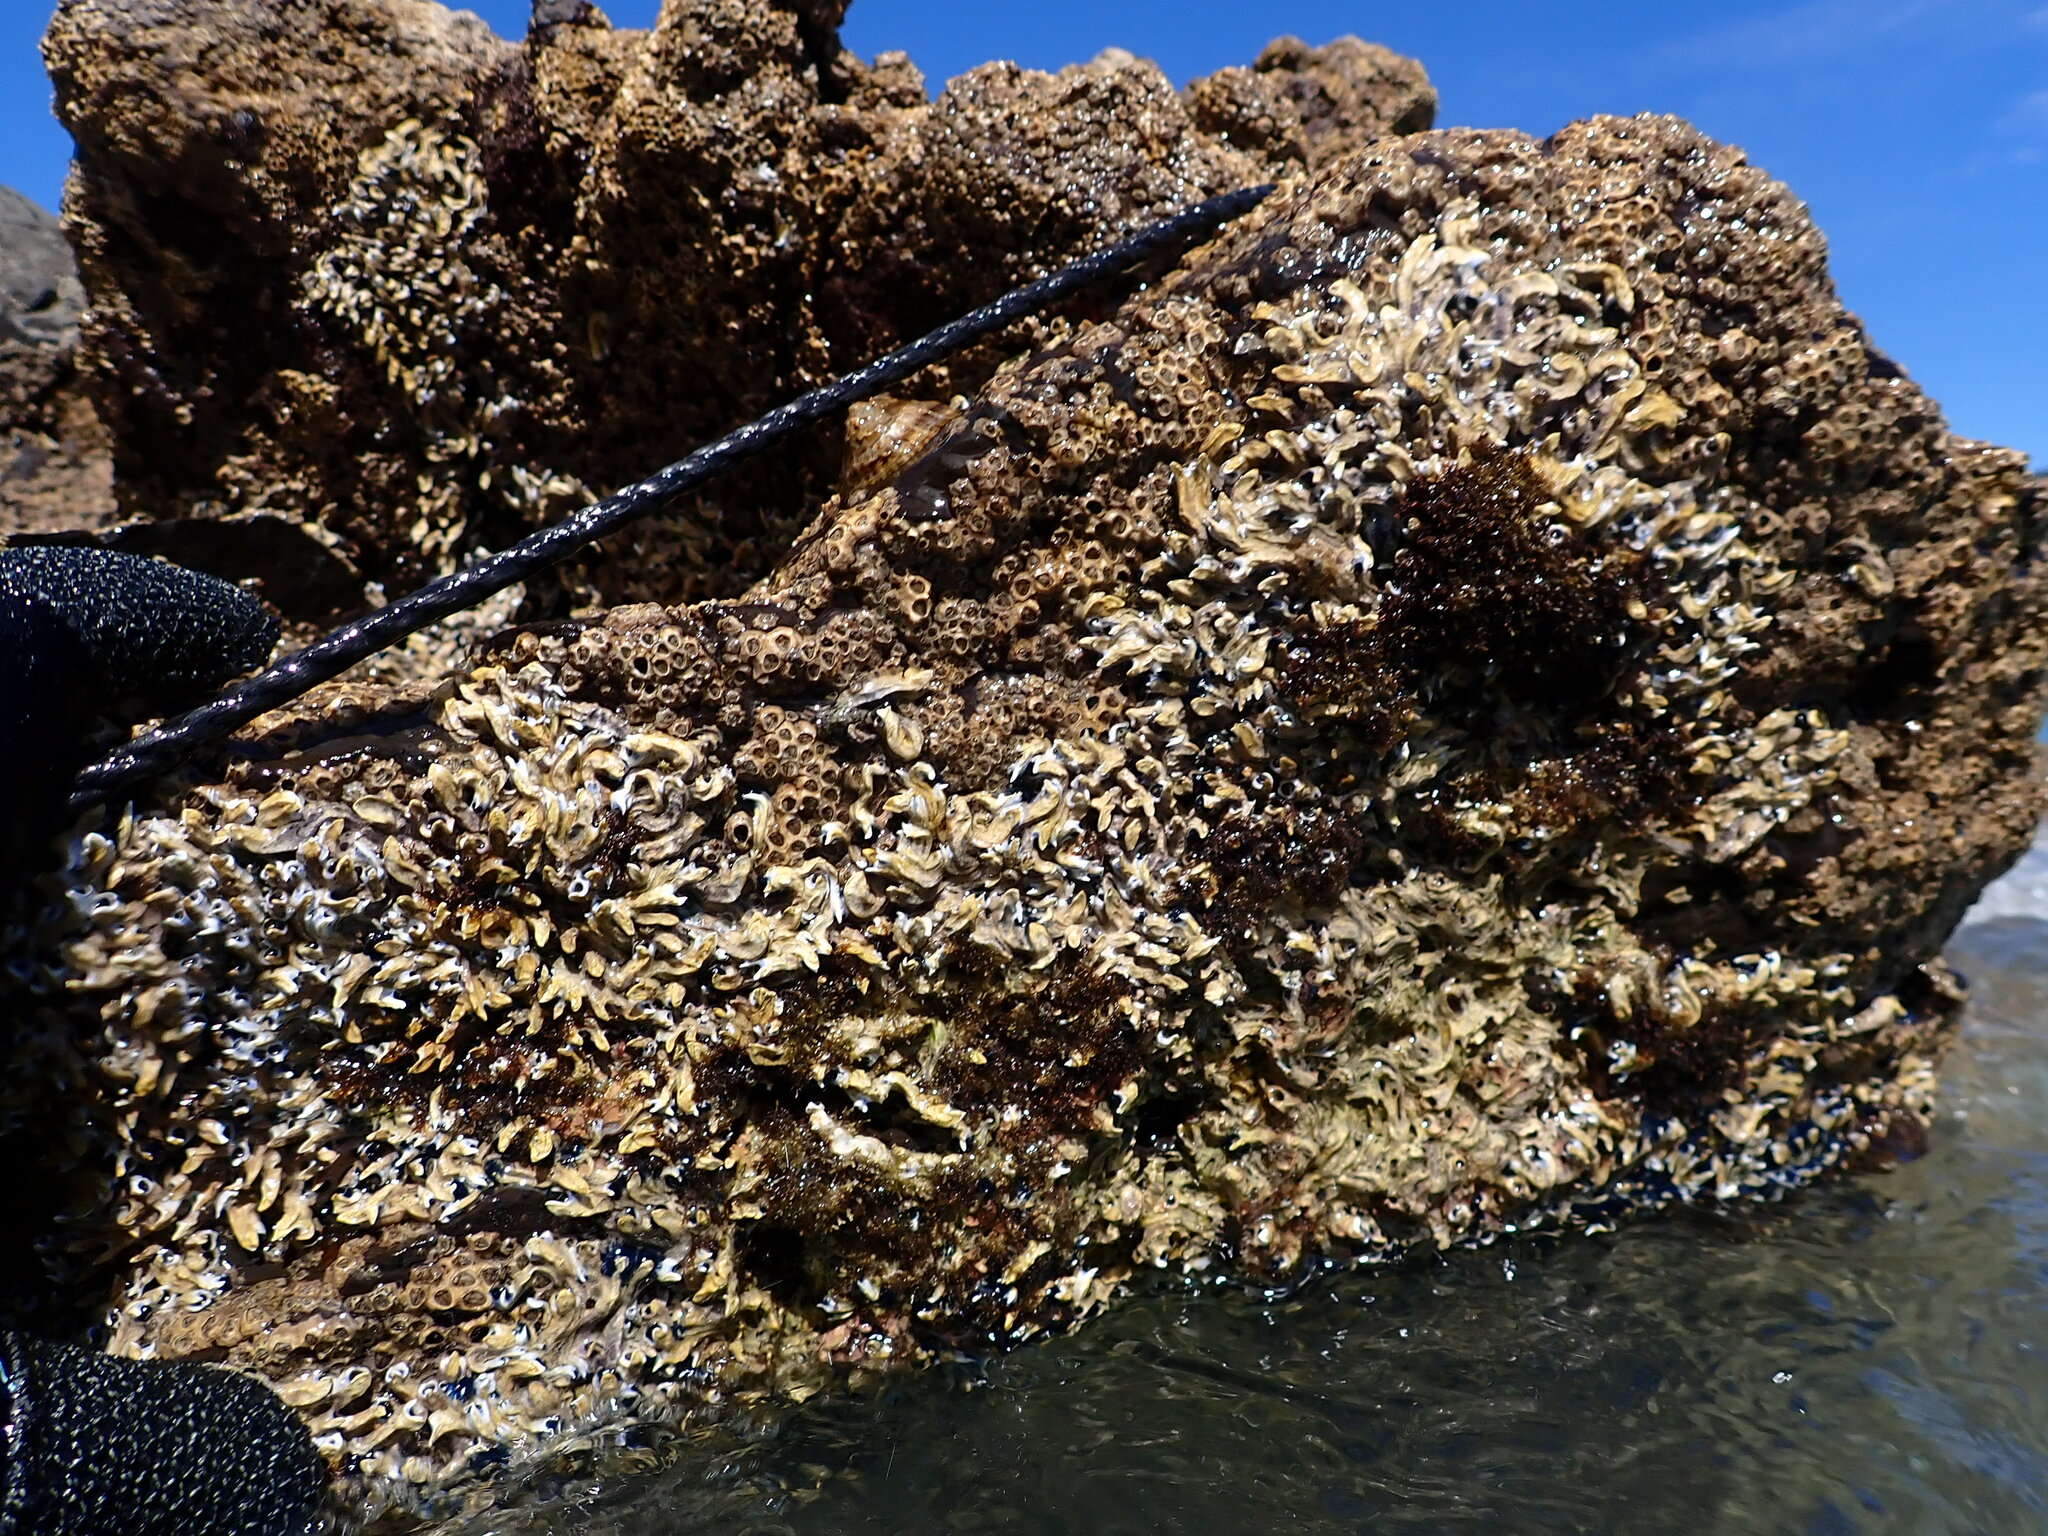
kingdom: Animalia
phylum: Annelida
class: Polychaeta
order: Sabellida
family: Serpulidae
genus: Spirobranchus
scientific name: Spirobranchus cariniferus
